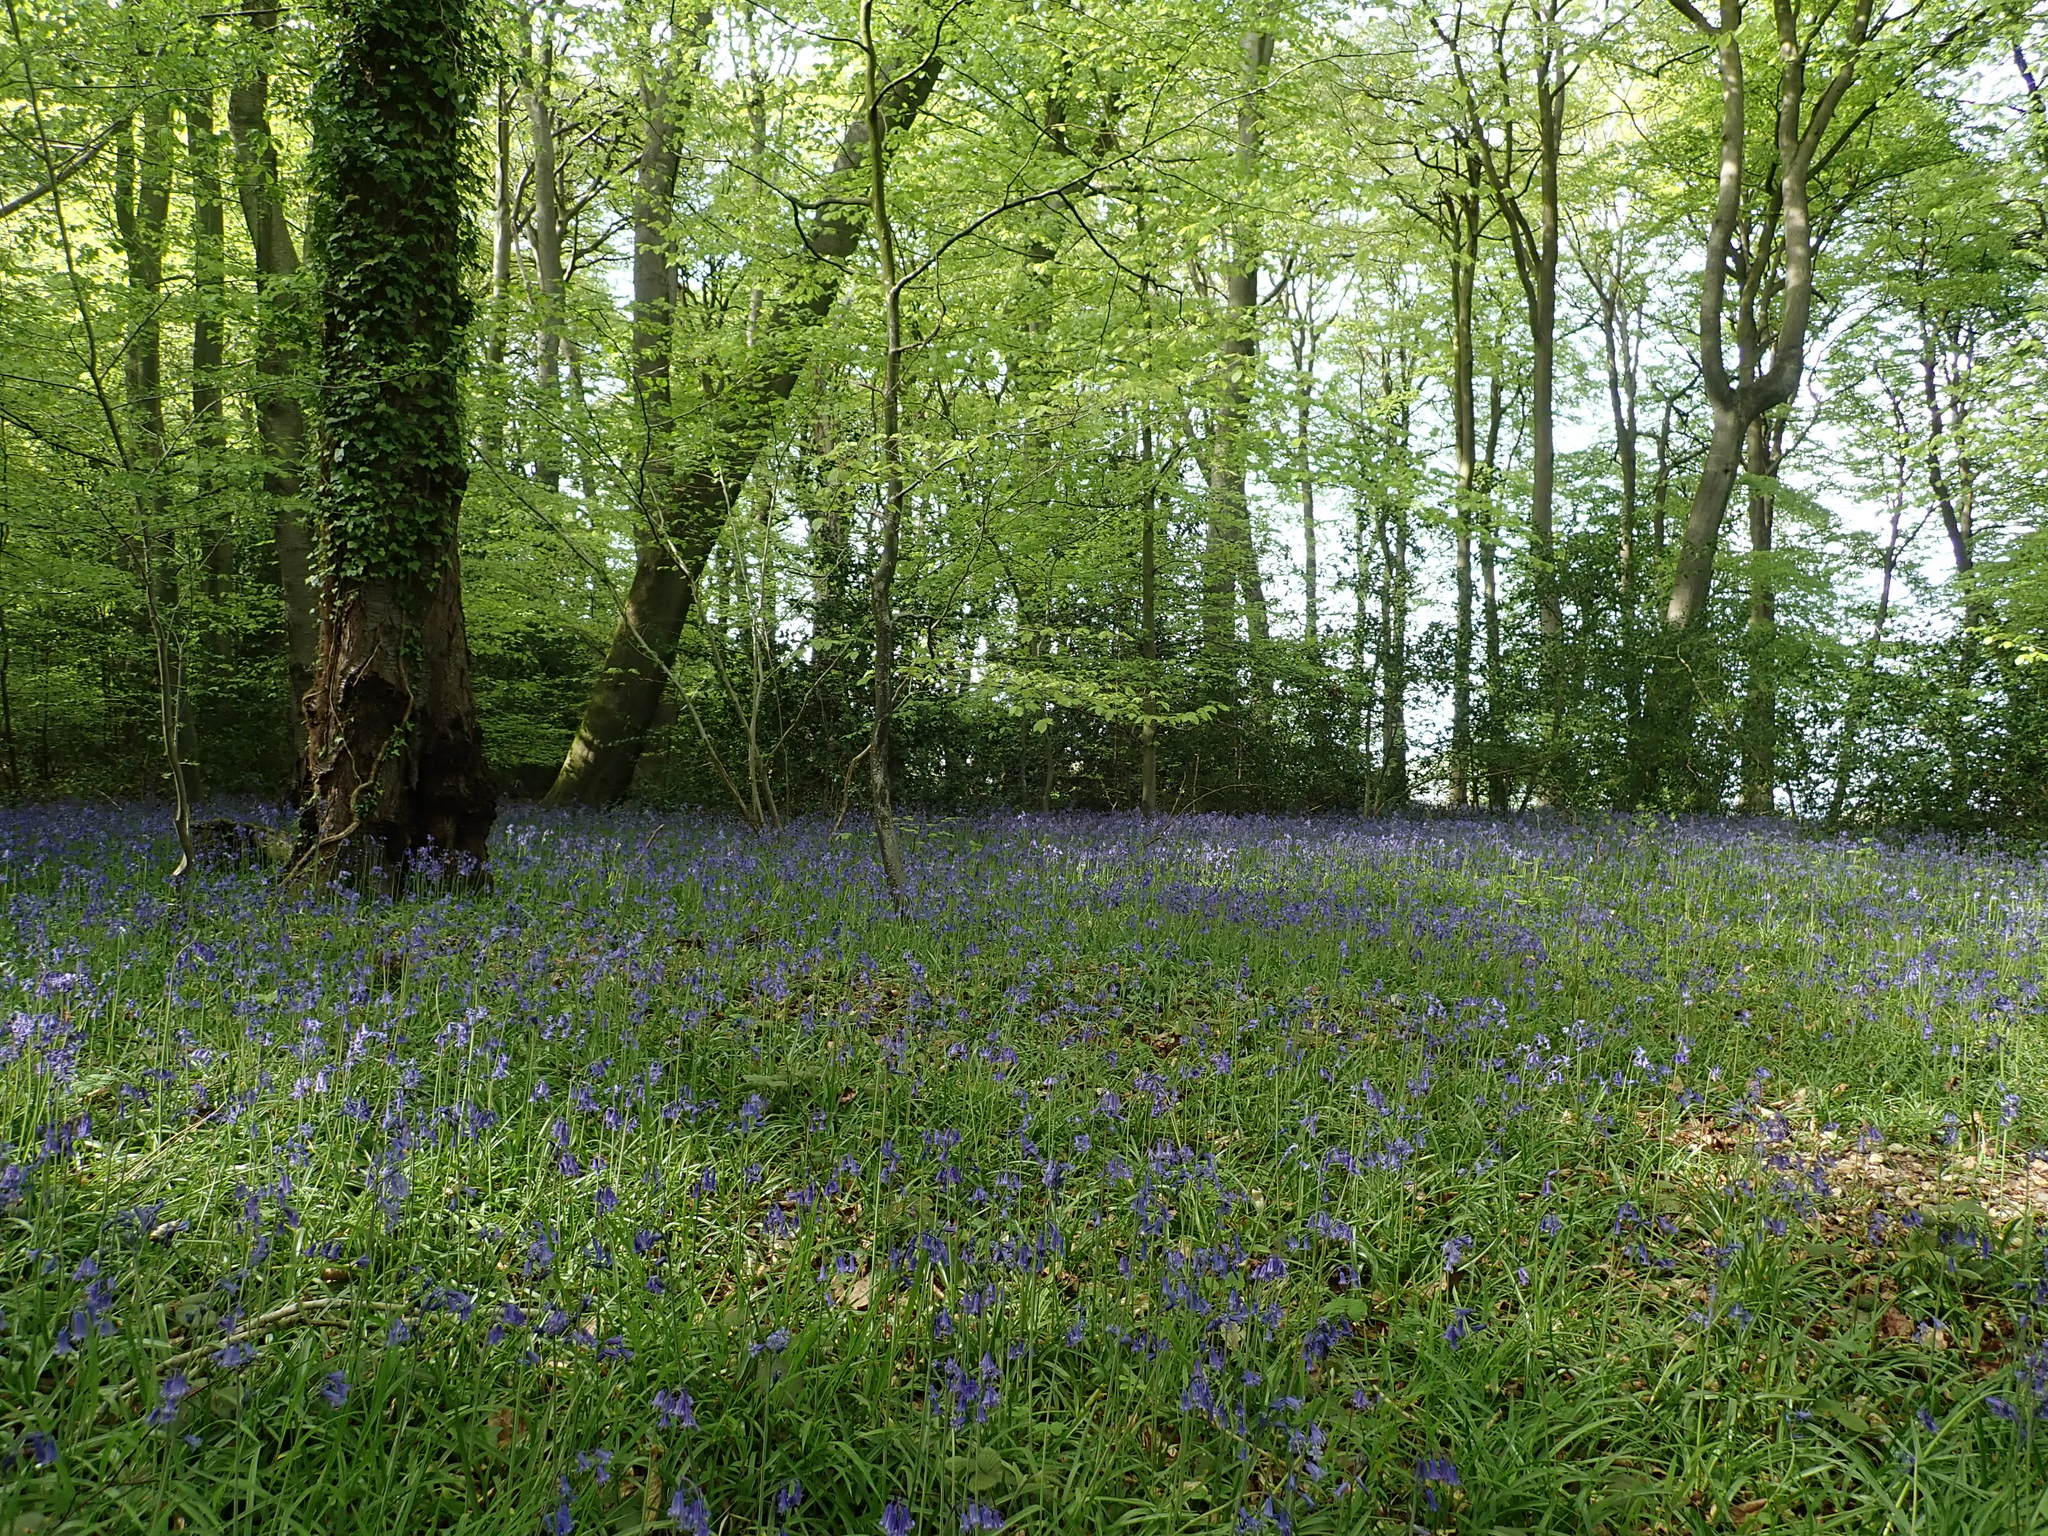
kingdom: Plantae
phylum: Tracheophyta
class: Liliopsida
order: Asparagales
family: Asparagaceae
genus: Hyacinthoides
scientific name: Hyacinthoides non-scripta
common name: Bluebell
